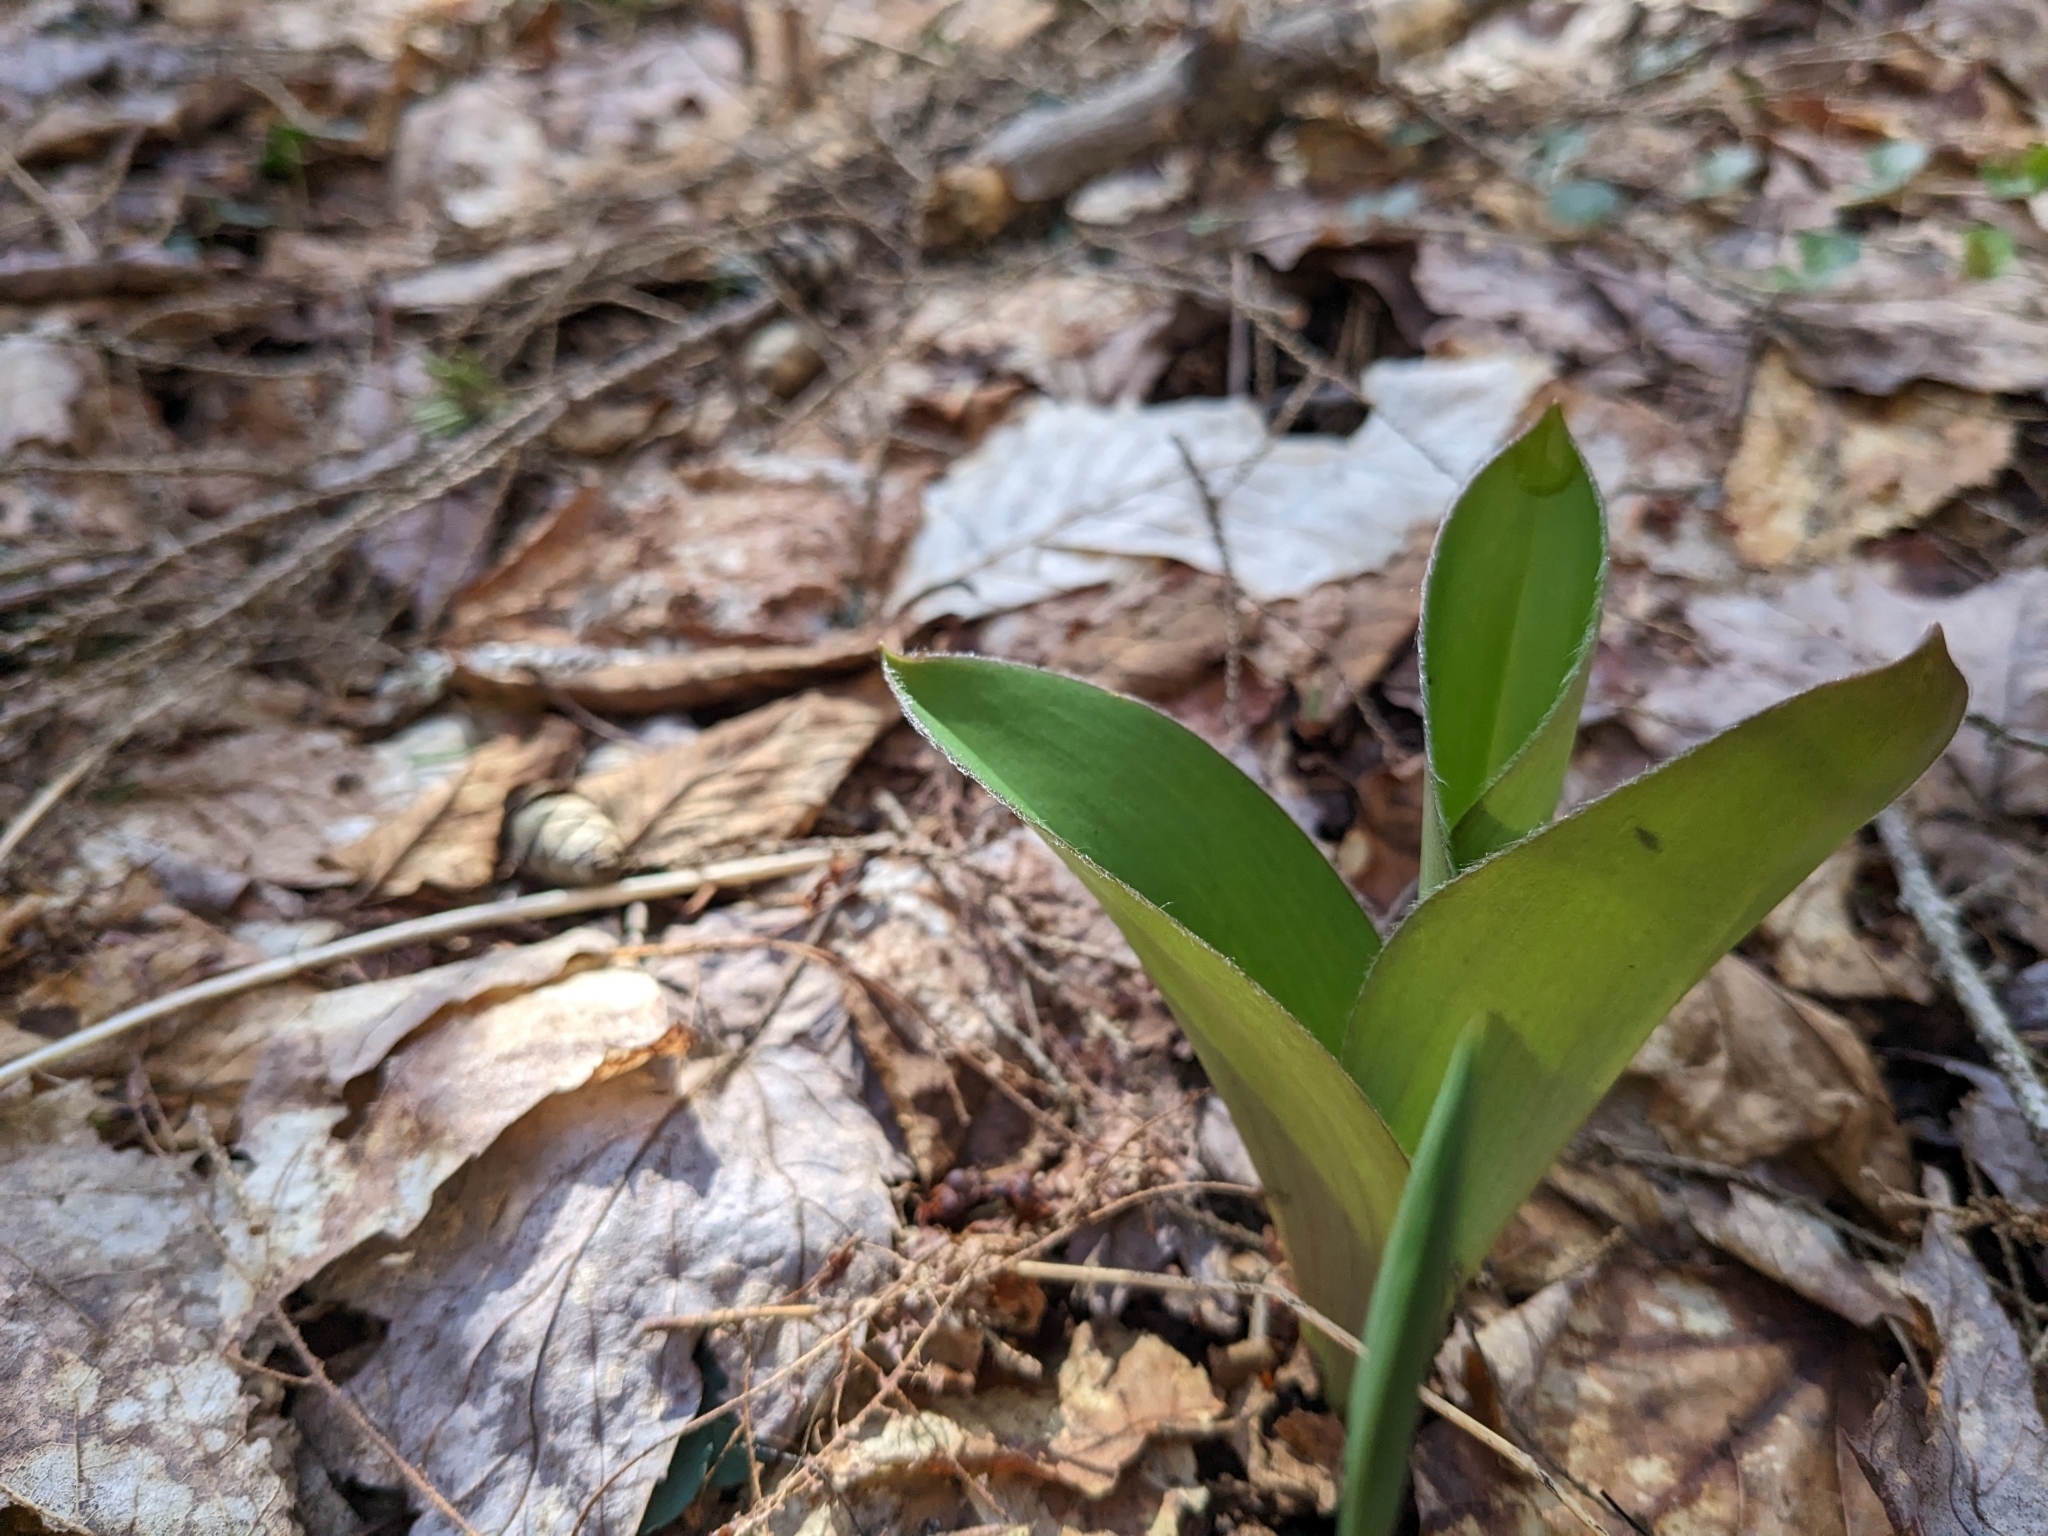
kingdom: Plantae
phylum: Tracheophyta
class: Liliopsida
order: Liliales
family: Liliaceae
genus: Clintonia
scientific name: Clintonia borealis
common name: Yellow clintonia
